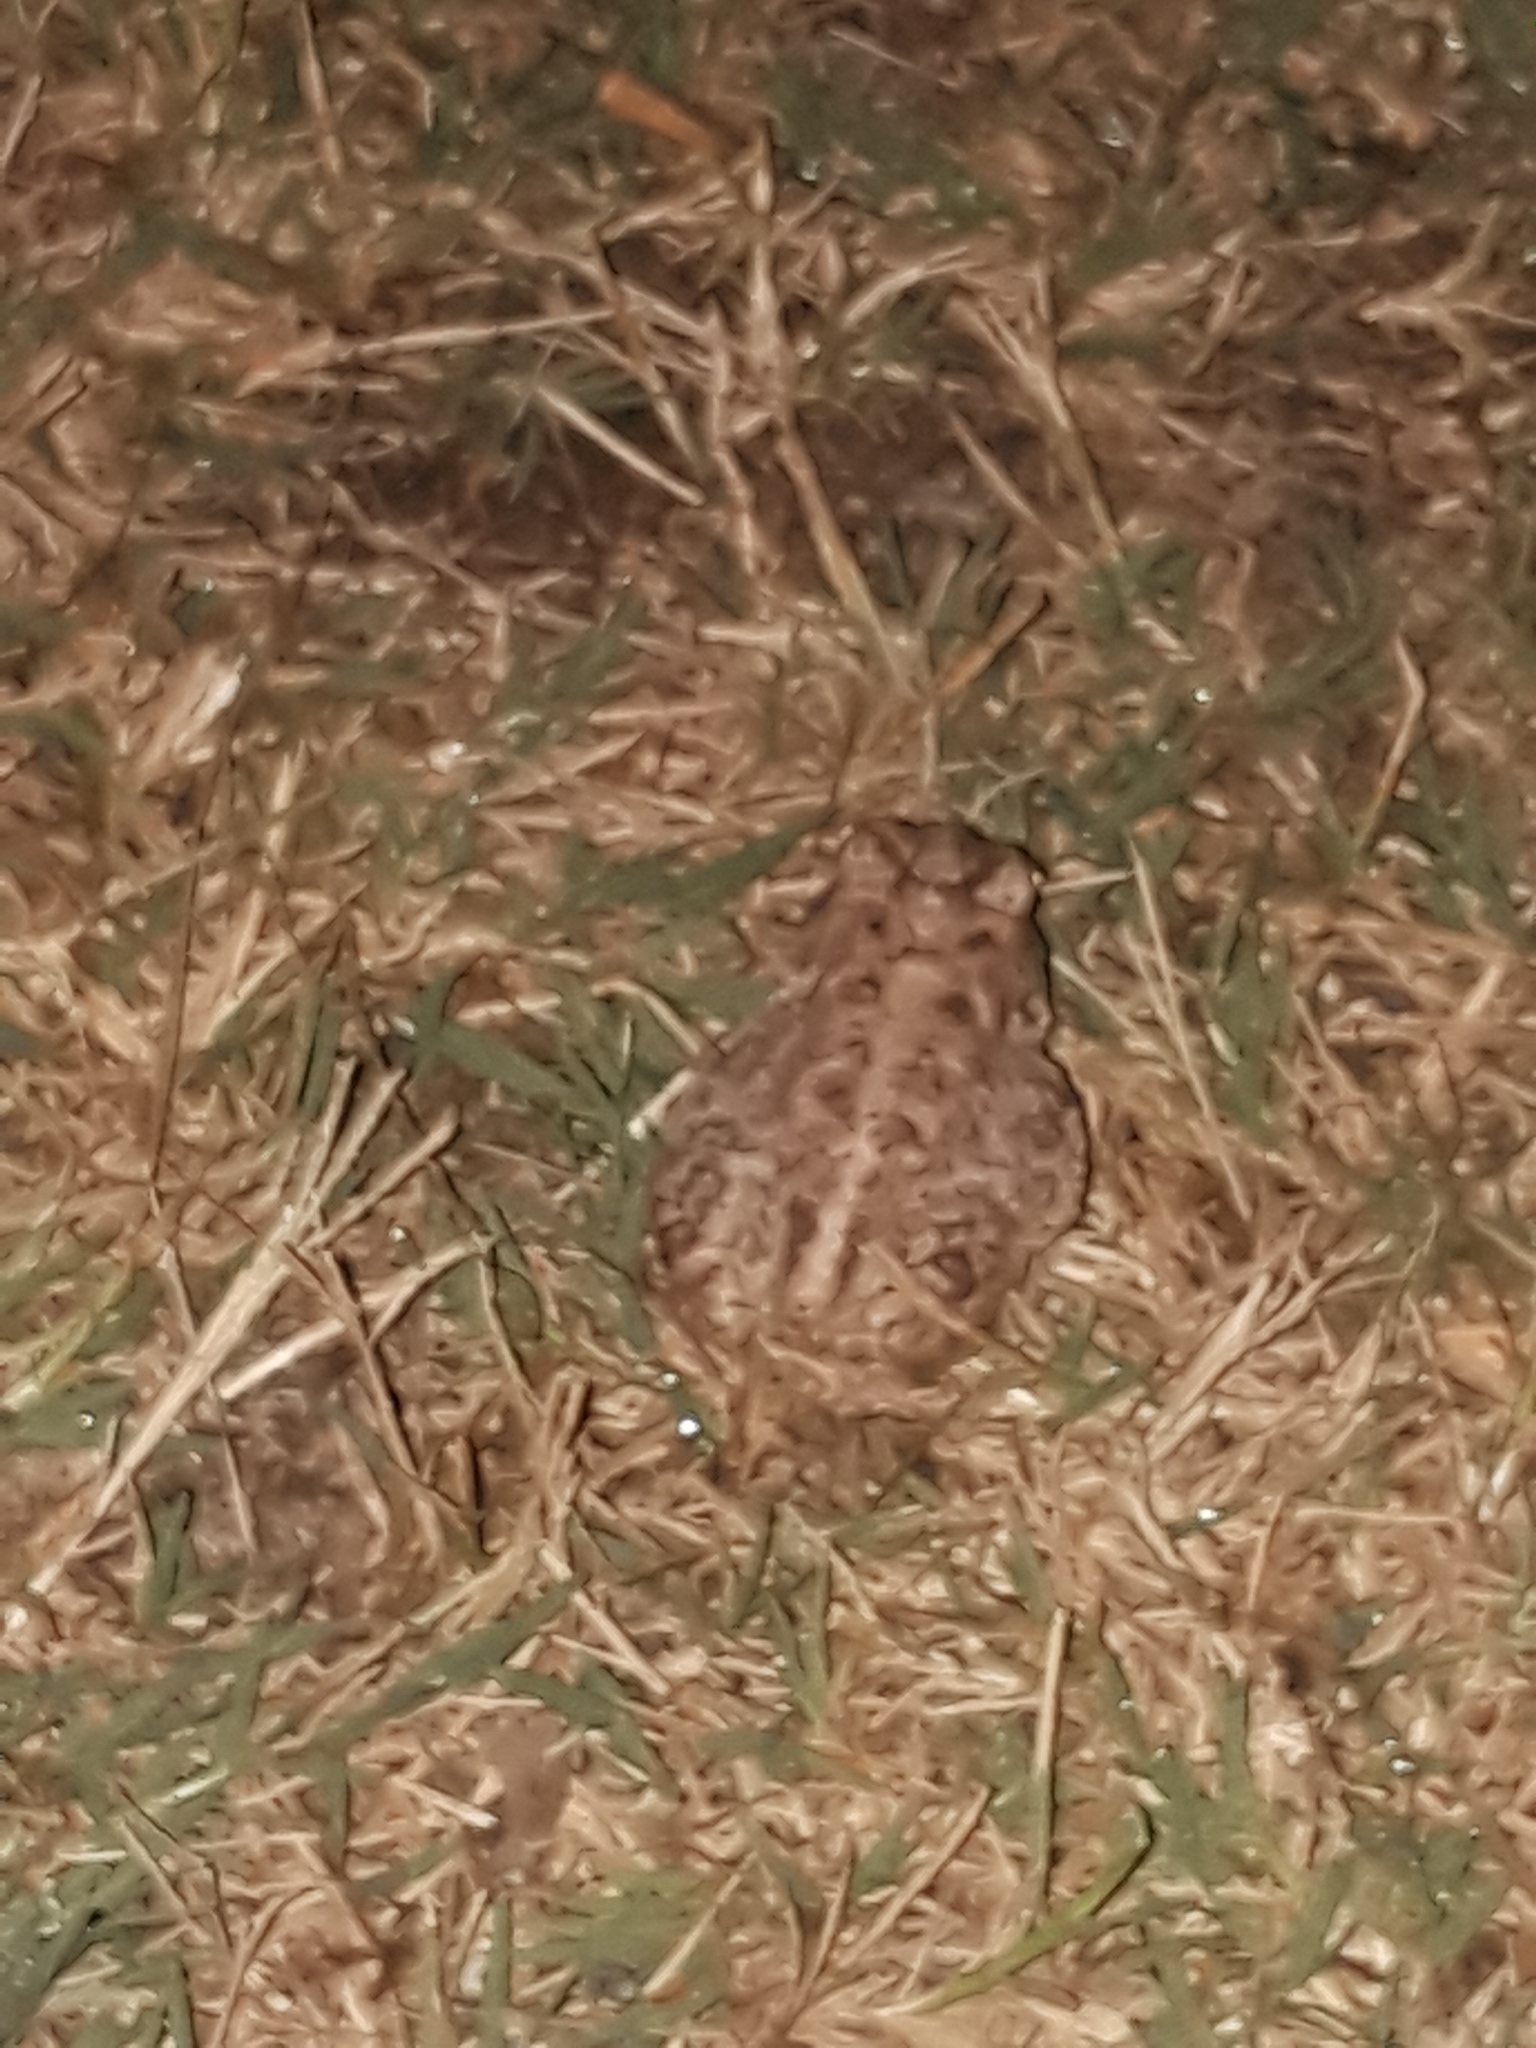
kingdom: Animalia
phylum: Chordata
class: Amphibia
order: Anura
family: Bufonidae
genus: Anaxyrus
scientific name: Anaxyrus terrestris
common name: Southern toad
